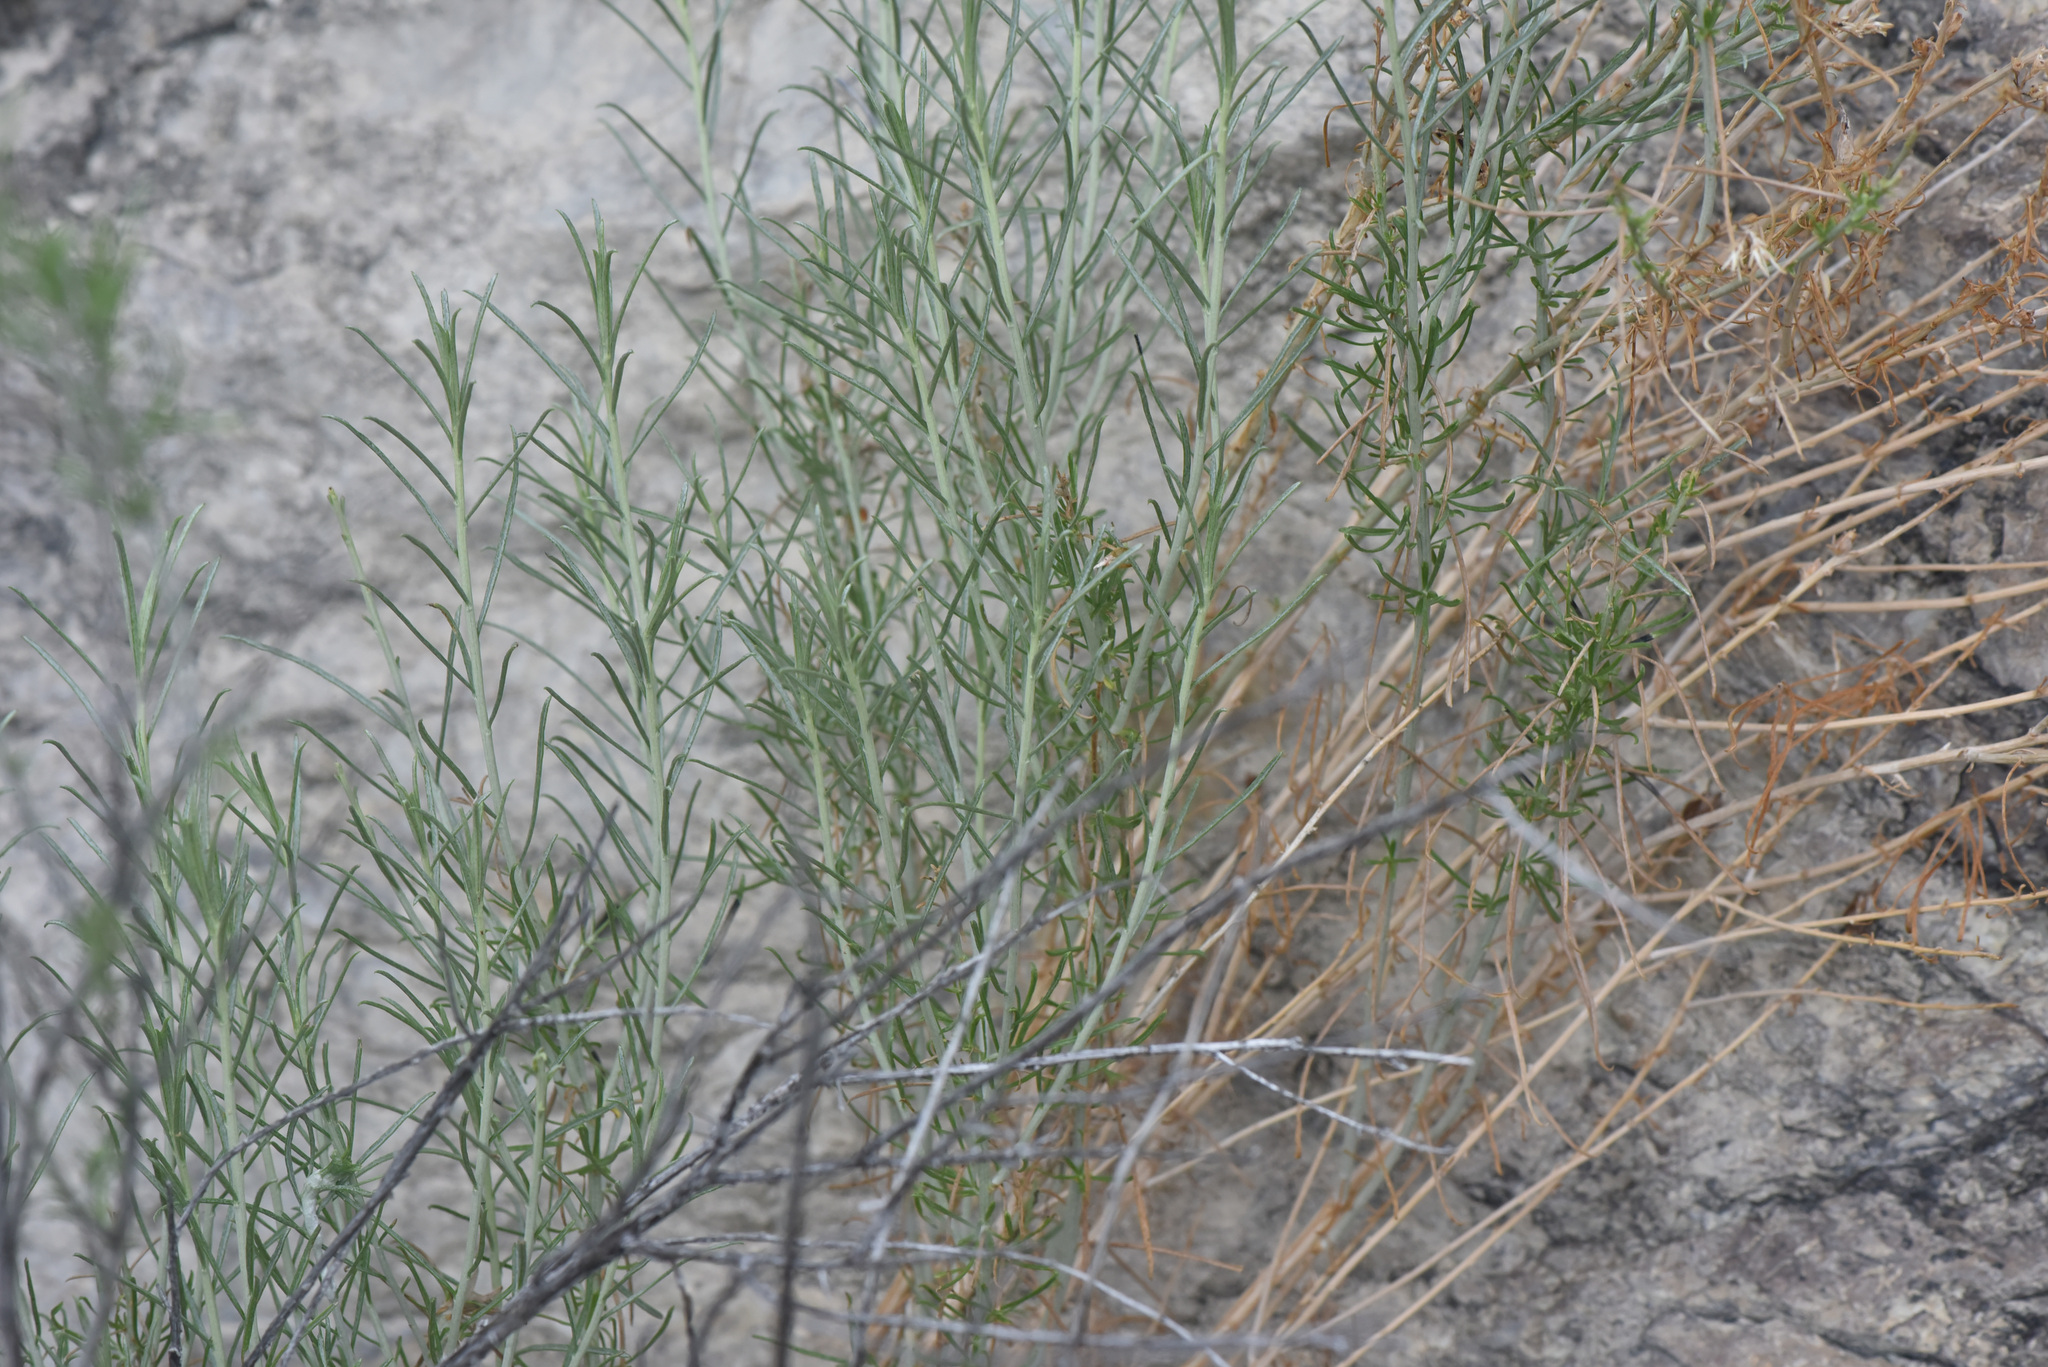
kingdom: Plantae
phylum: Tracheophyta
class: Magnoliopsida
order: Asterales
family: Asteraceae
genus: Ericameria
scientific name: Ericameria nauseosa
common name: Rubber rabbitbrush
